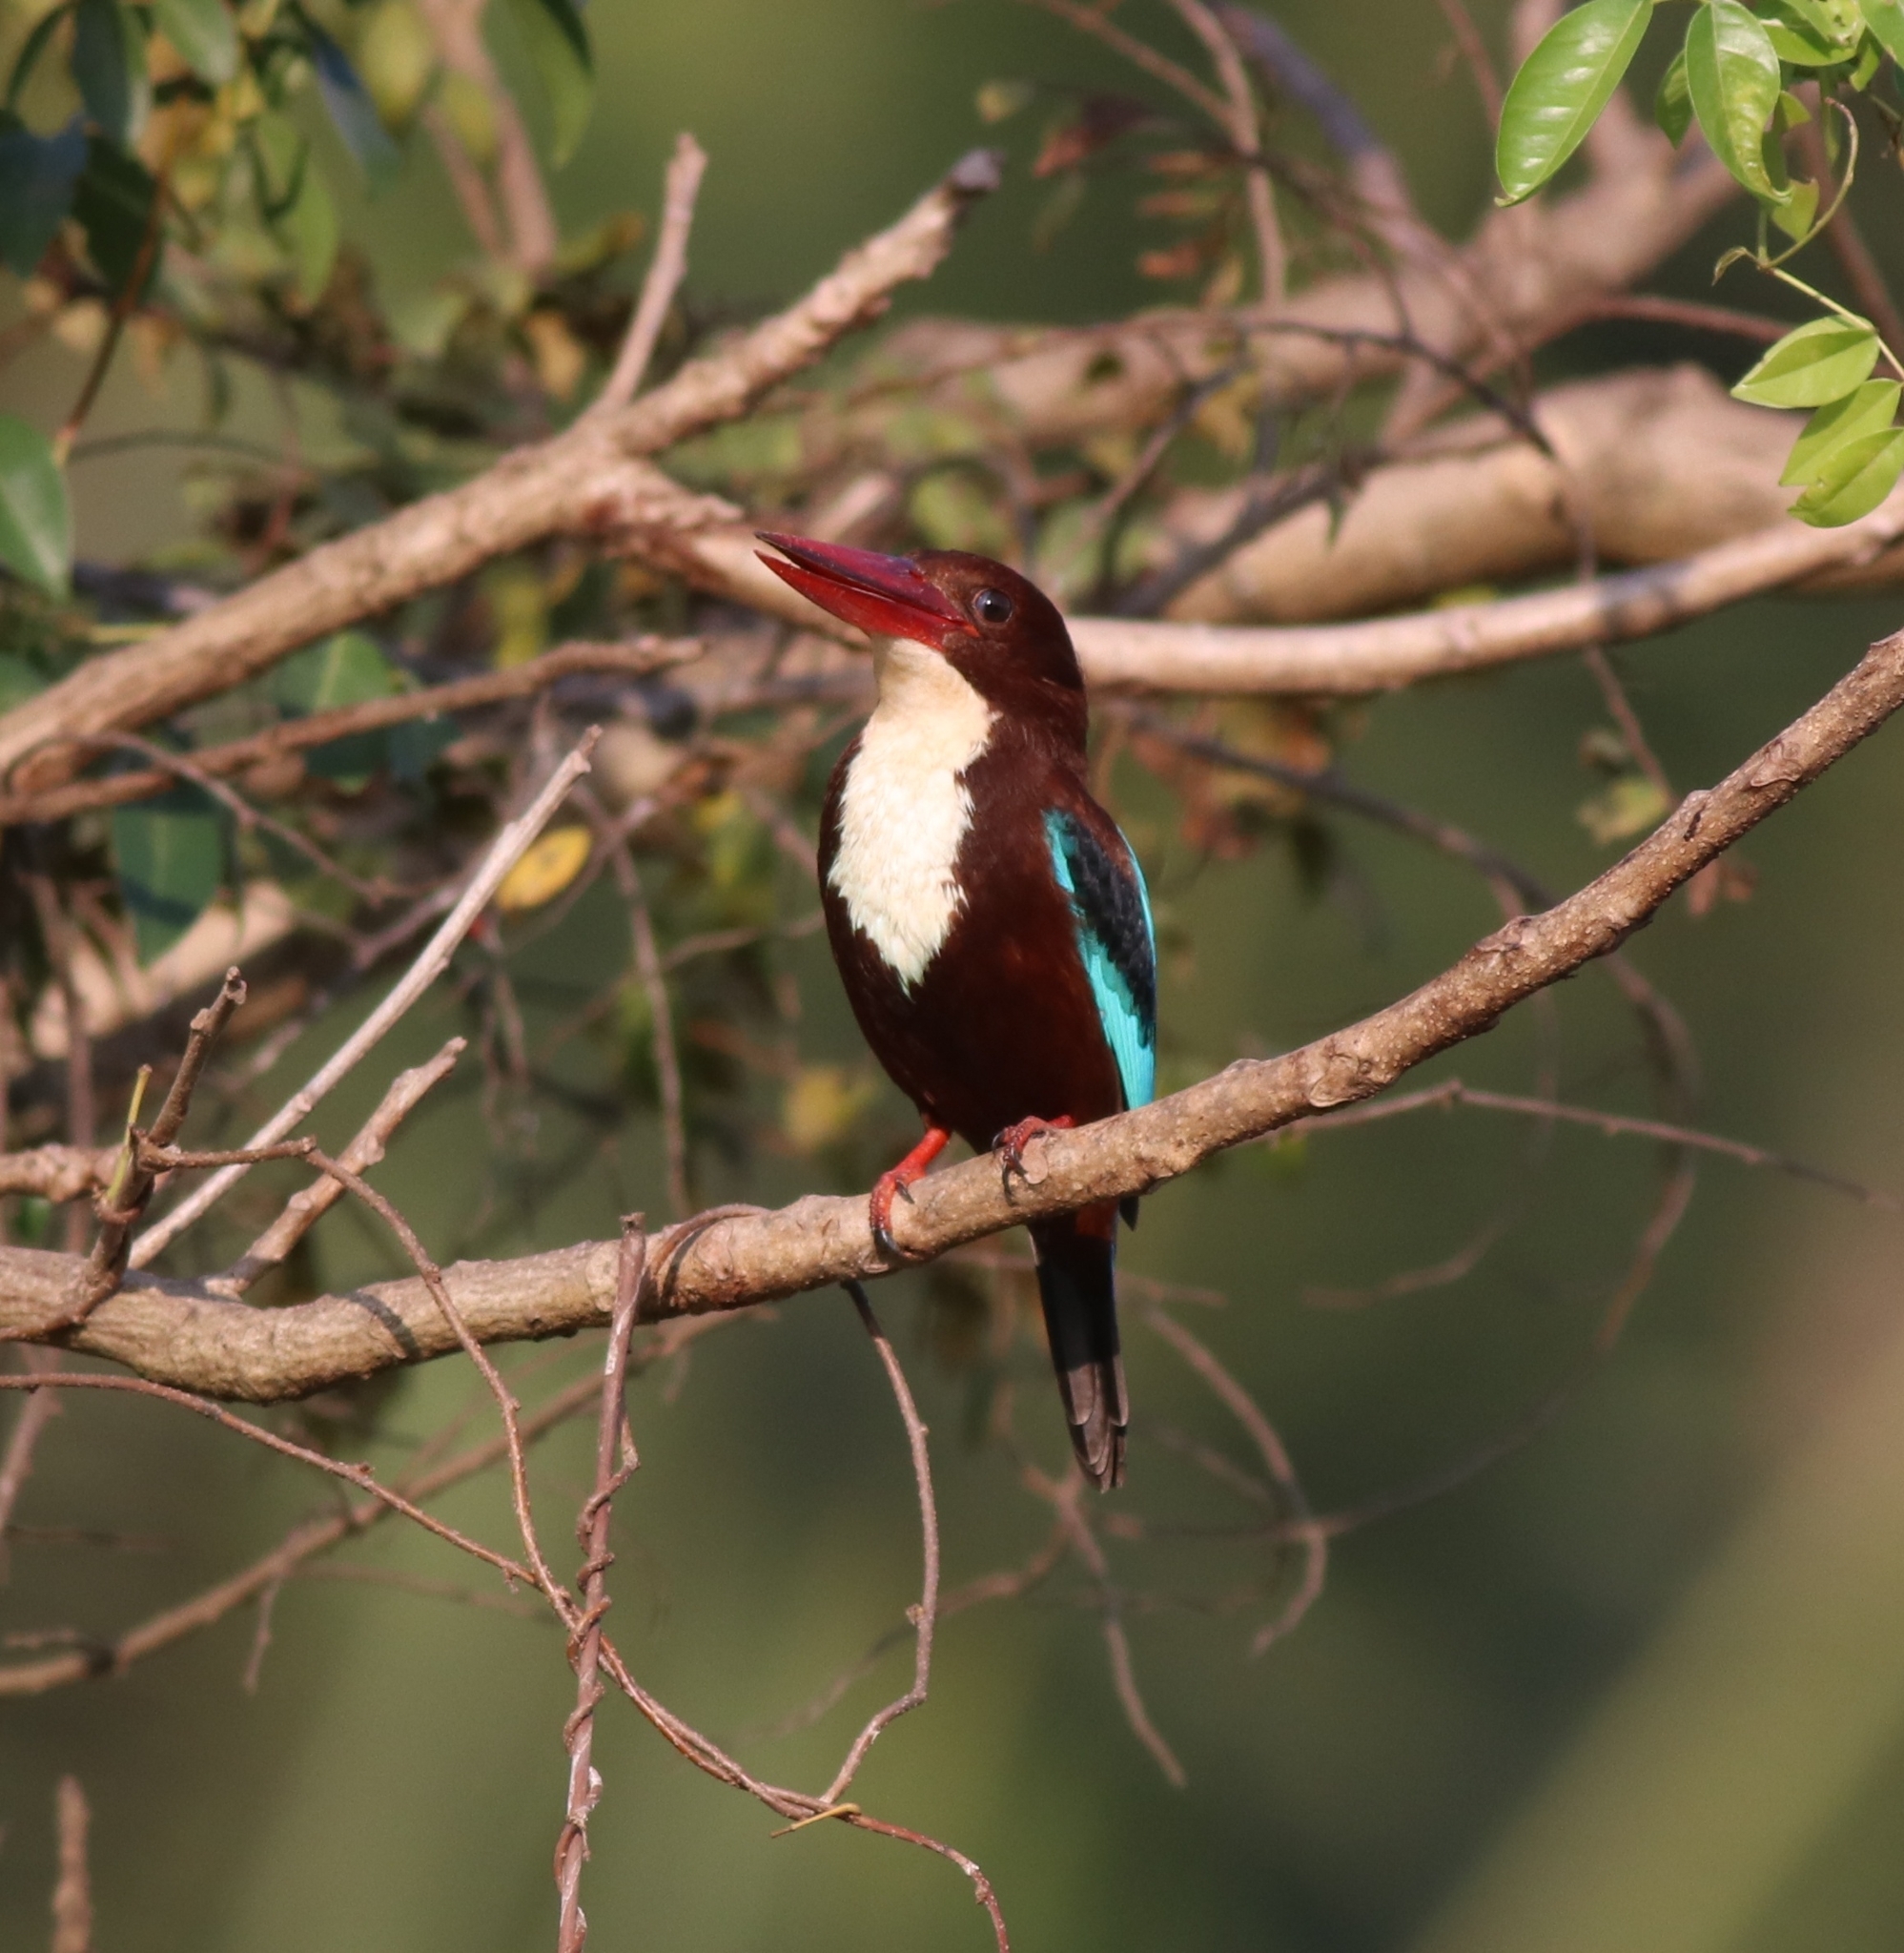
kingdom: Animalia
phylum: Chordata
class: Aves
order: Coraciiformes
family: Alcedinidae
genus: Halcyon
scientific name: Halcyon smyrnensis
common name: White-throated kingfisher
